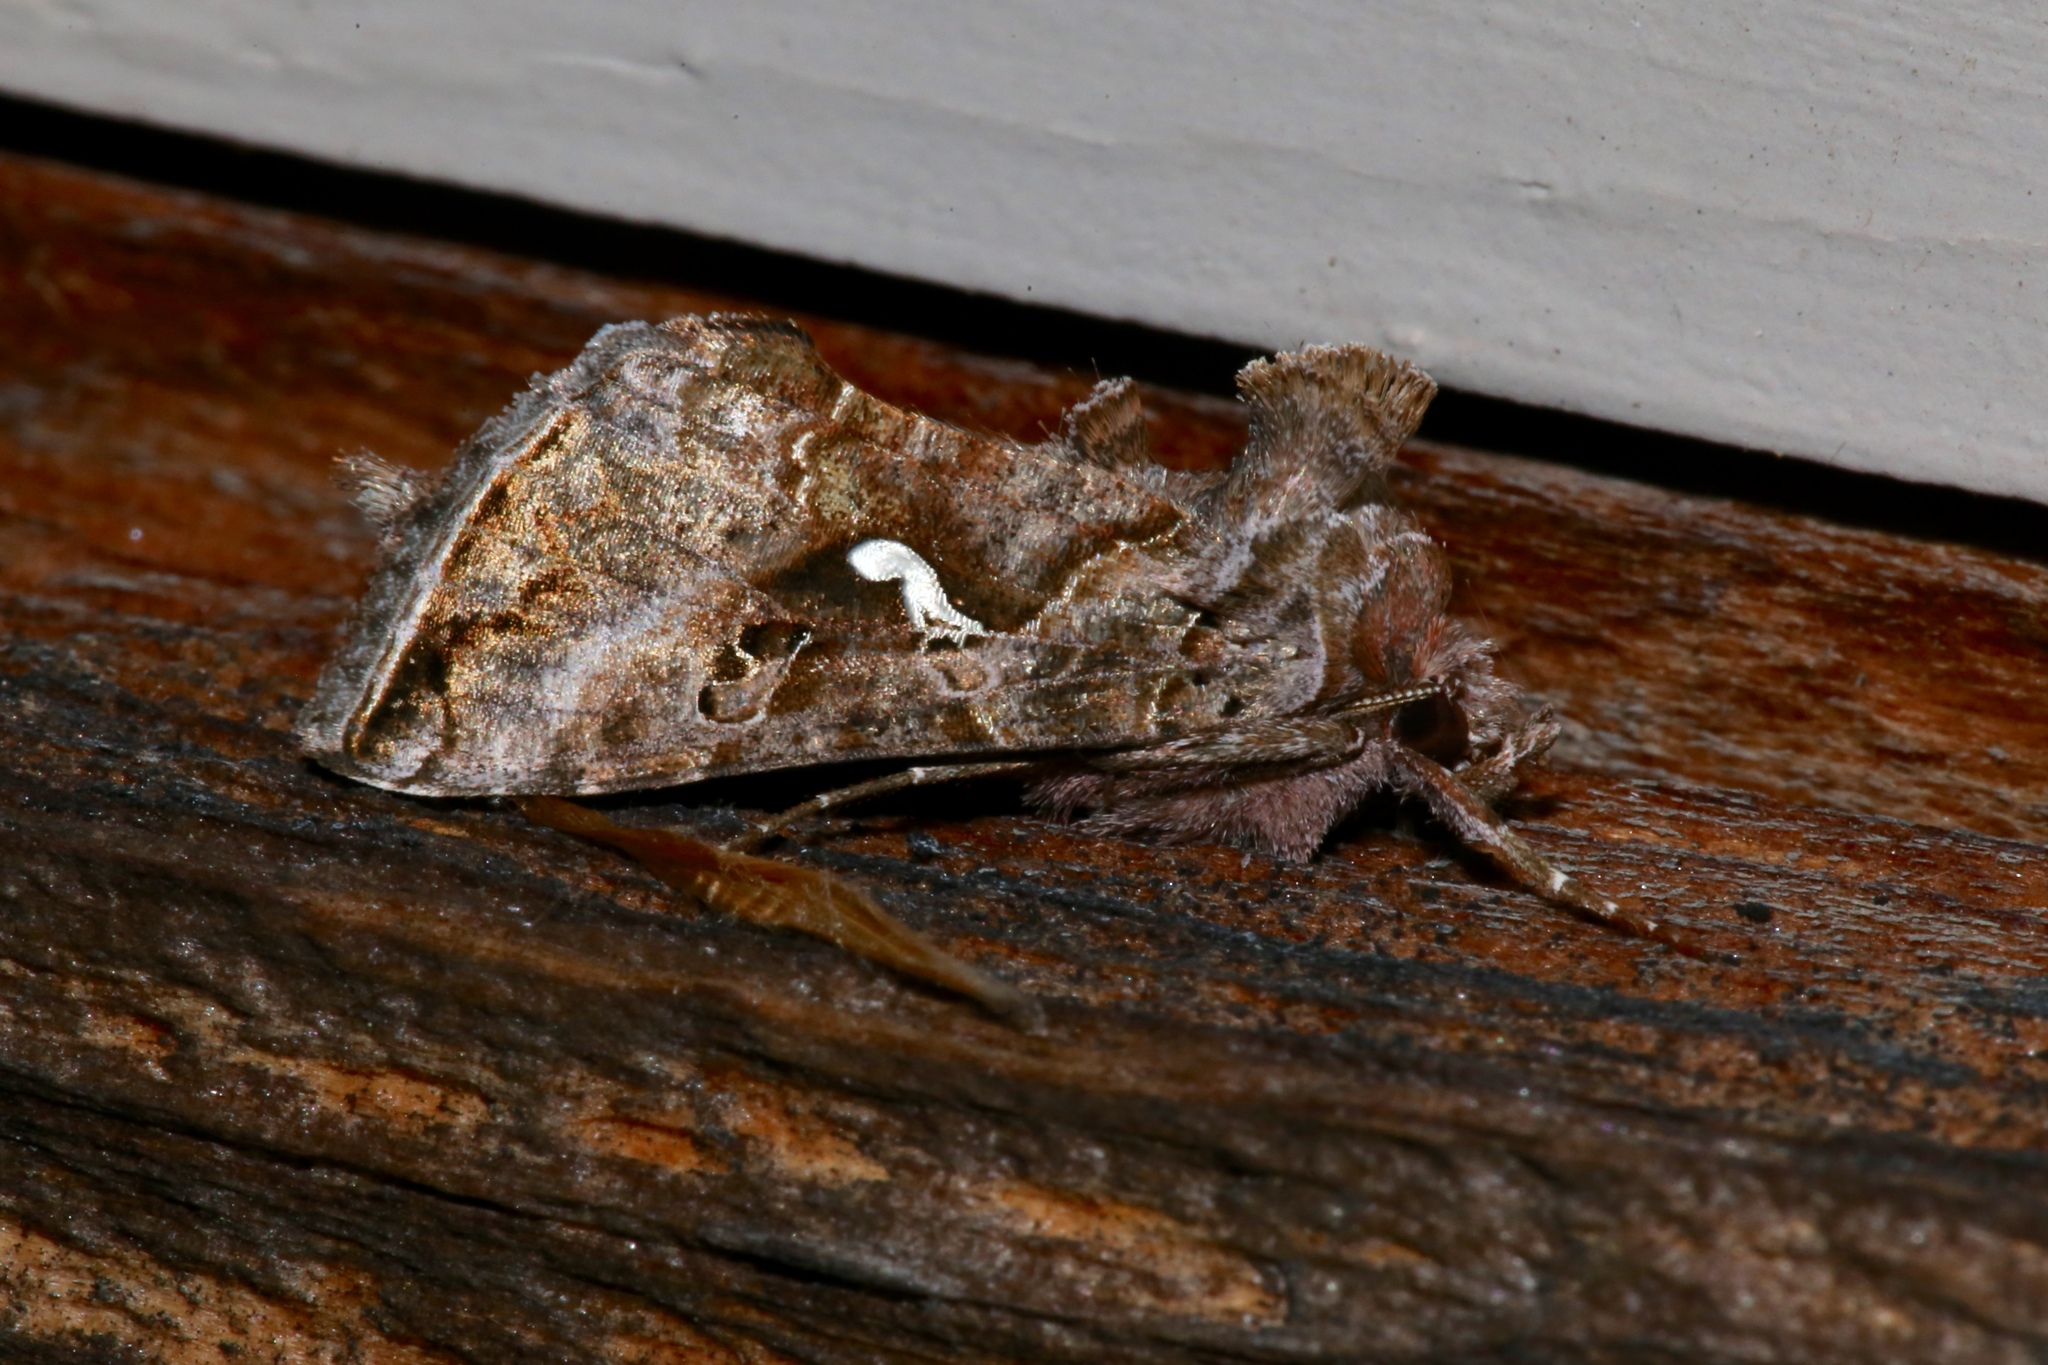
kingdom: Animalia
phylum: Arthropoda
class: Insecta
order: Lepidoptera
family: Noctuidae
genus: Autographa
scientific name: Autographa precationis
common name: Common looper moth
